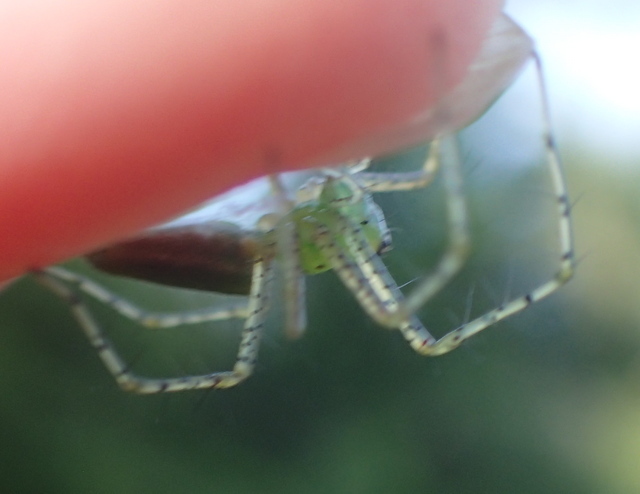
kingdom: Animalia
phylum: Arthropoda
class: Arachnida
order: Araneae
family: Oxyopidae
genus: Peucetia
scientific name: Peucetia viridans
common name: Lynx spiders
